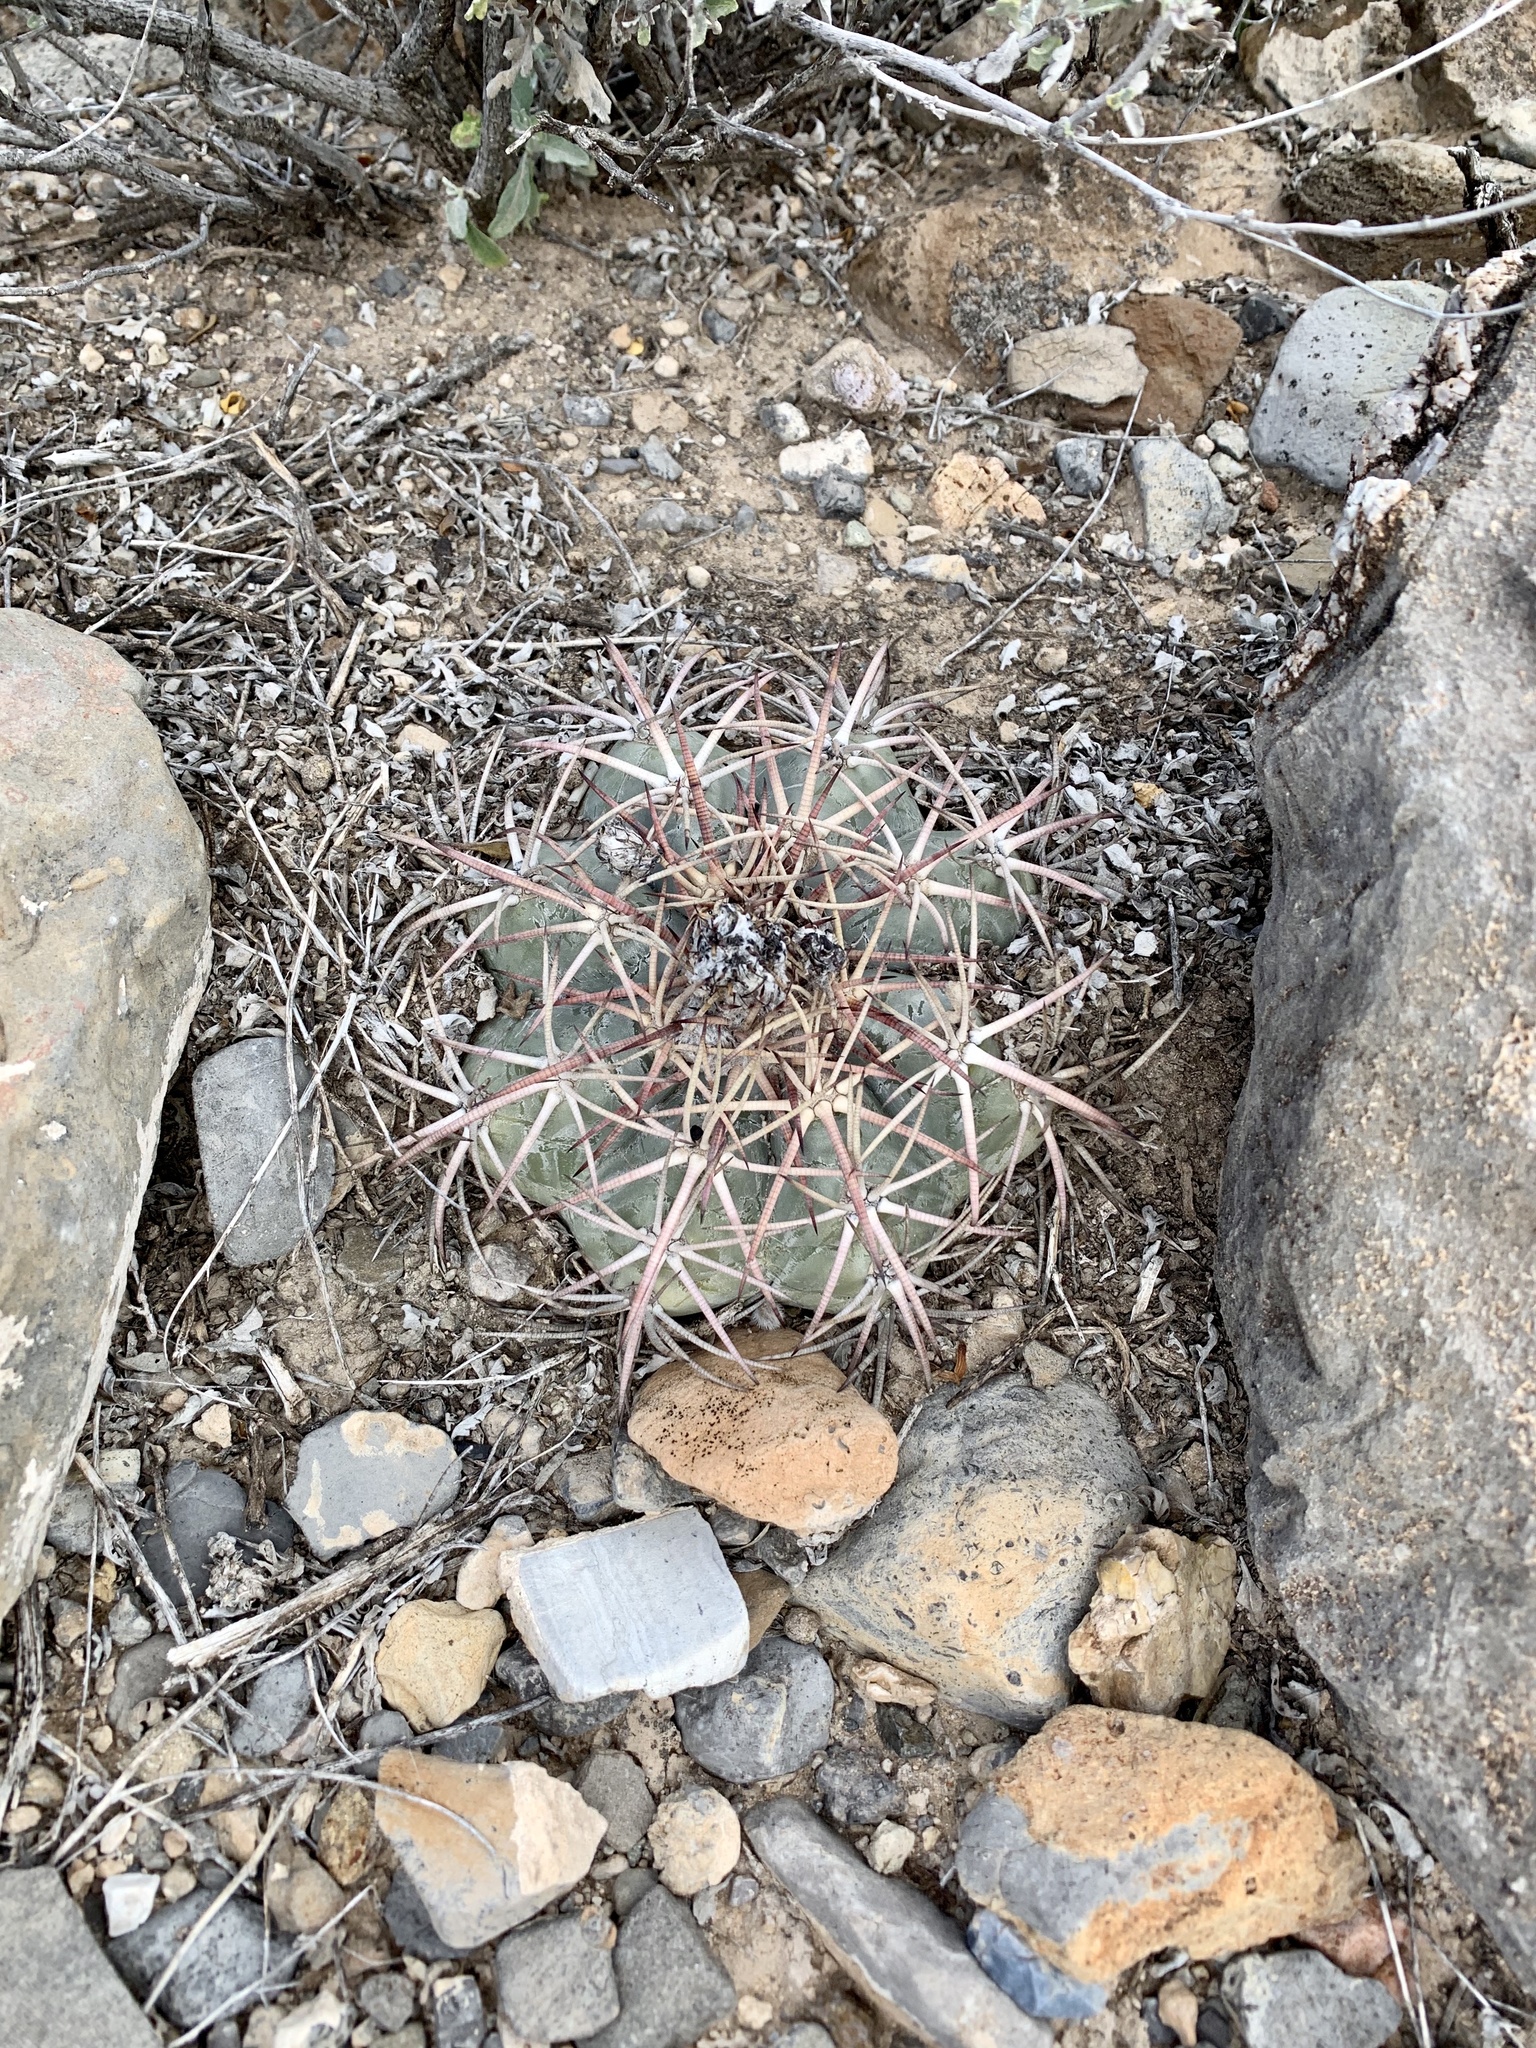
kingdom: Plantae
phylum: Tracheophyta
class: Magnoliopsida
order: Caryophyllales
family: Cactaceae
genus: Echinocactus
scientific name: Echinocactus horizonthalonius
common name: Devilshead
